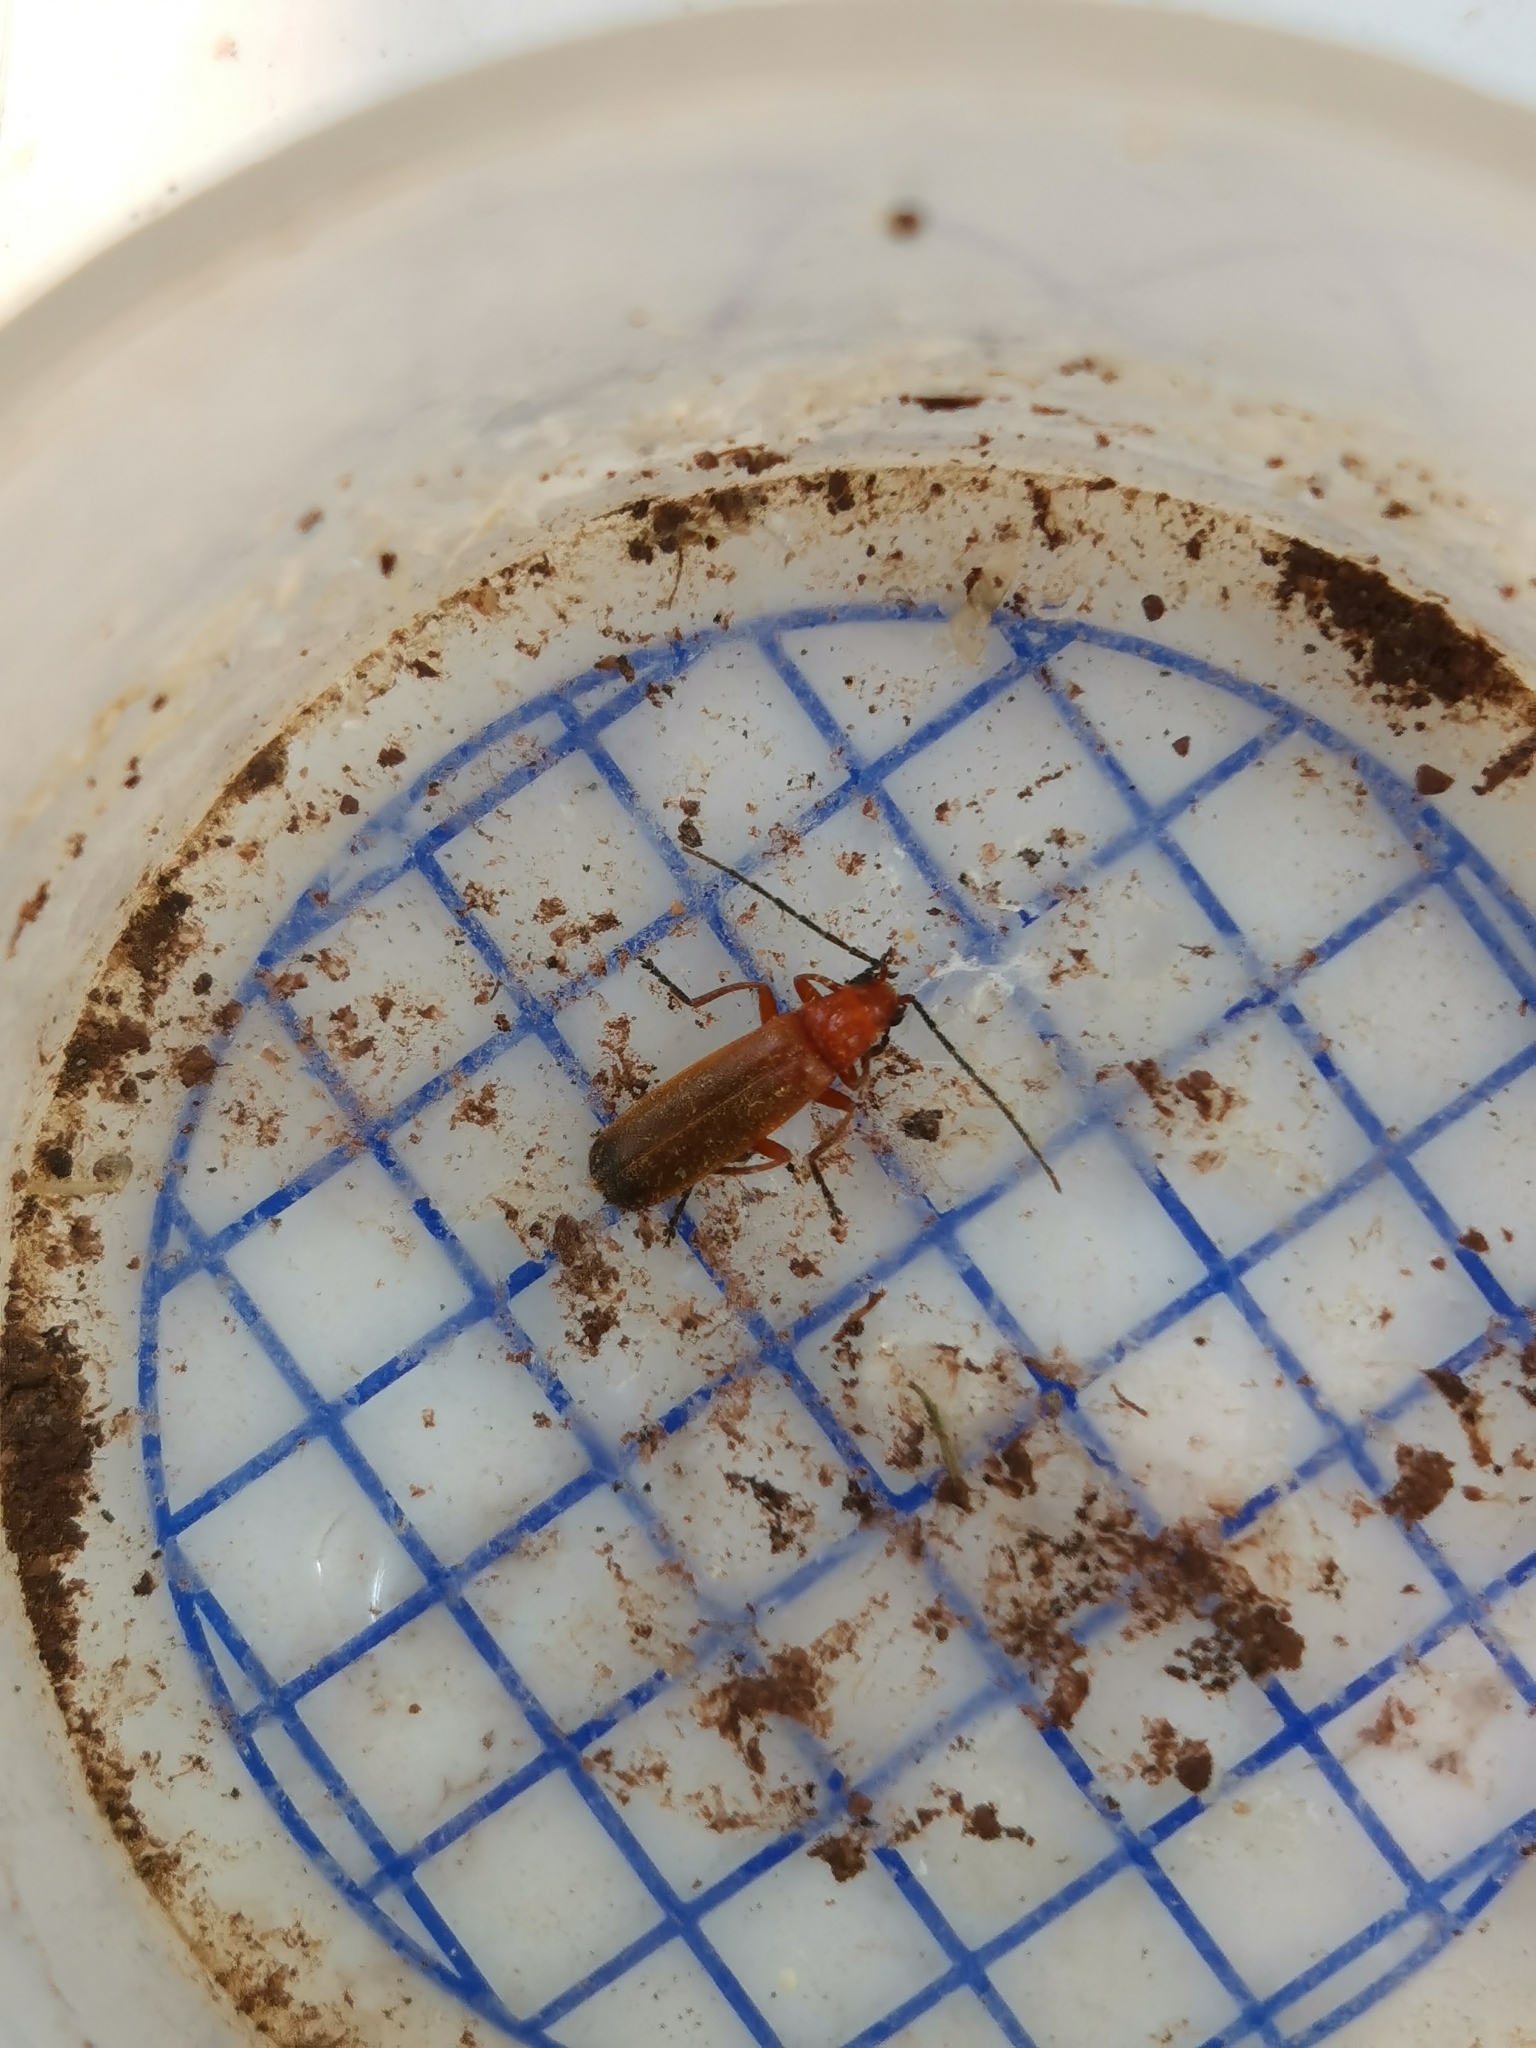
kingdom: Animalia
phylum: Arthropoda
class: Insecta
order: Coleoptera
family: Cantharidae
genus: Rhagonycha
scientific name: Rhagonycha fulva
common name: Common red soldier beetle
